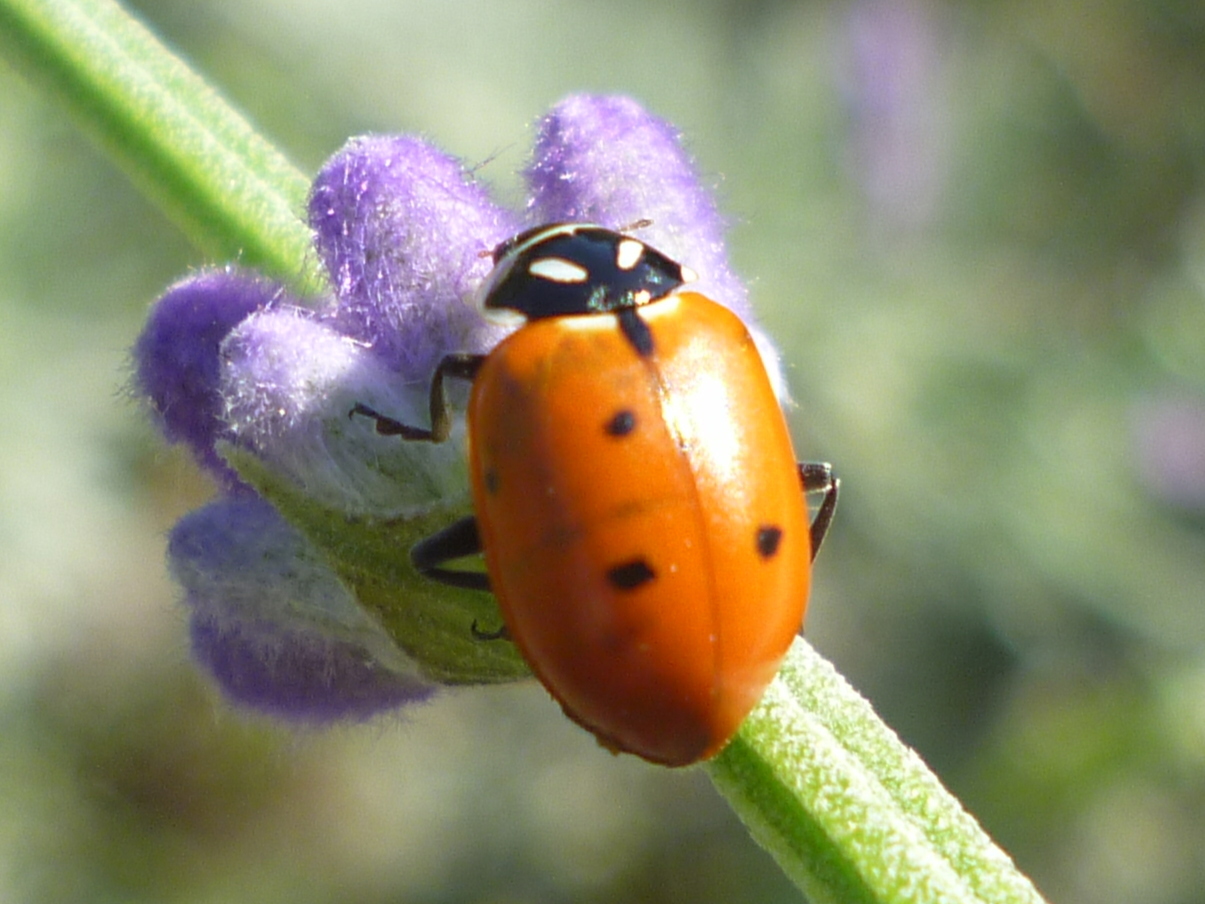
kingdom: Animalia
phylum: Arthropoda
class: Insecta
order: Coleoptera
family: Coccinellidae
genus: Hippodamia
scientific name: Hippodamia convergens
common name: Convergent lady beetle
